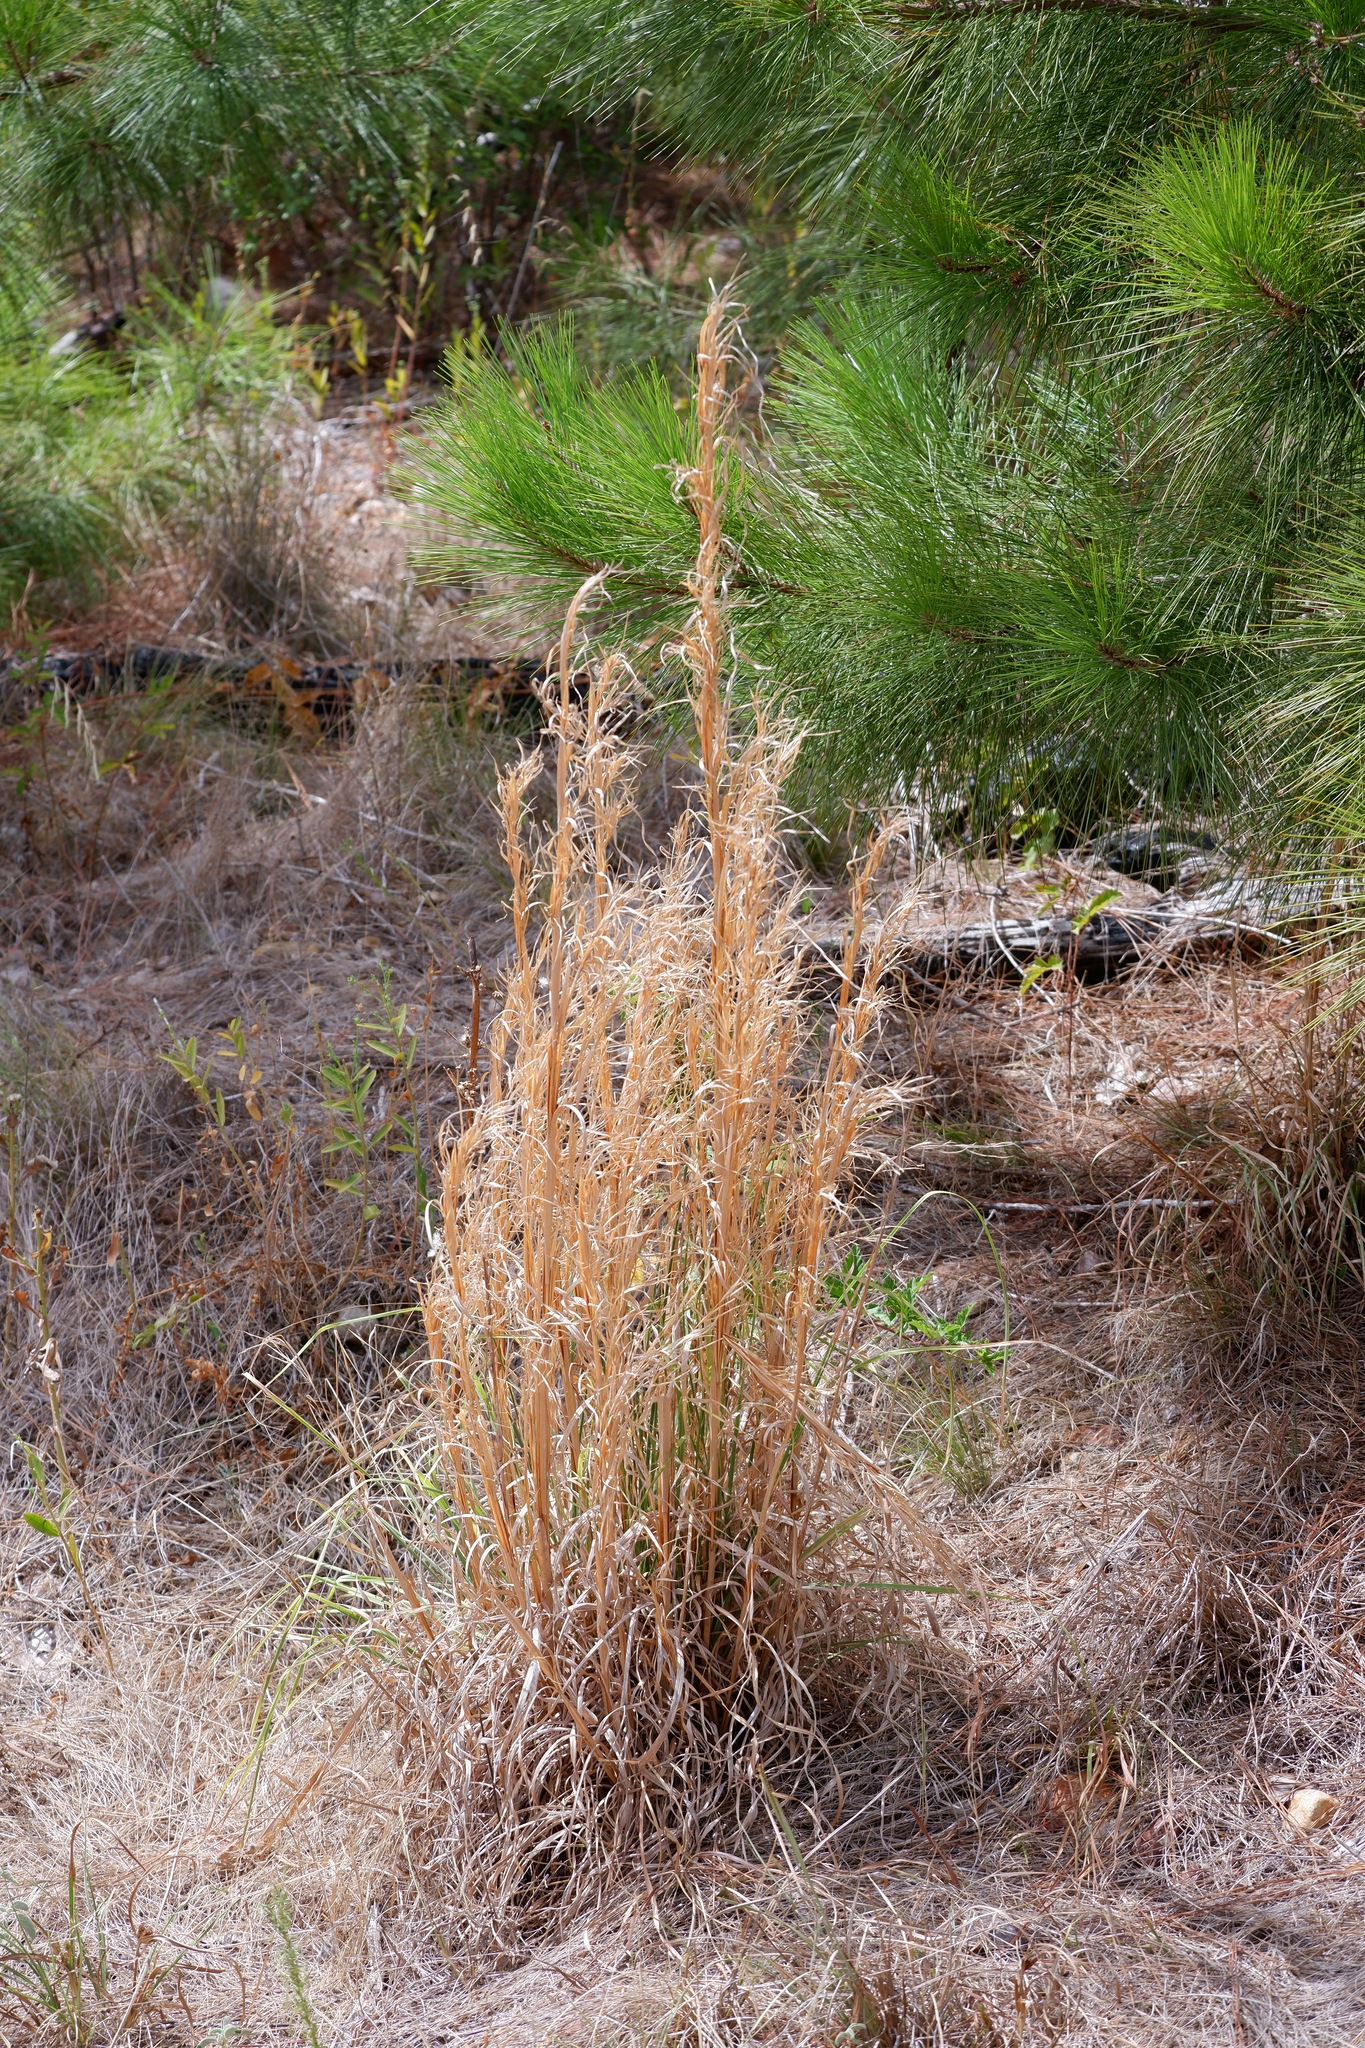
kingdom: Plantae
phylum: Tracheophyta
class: Liliopsida
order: Poales
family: Poaceae
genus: Andropogon
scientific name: Andropogon virginicus
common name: Broomsedge bluestem
